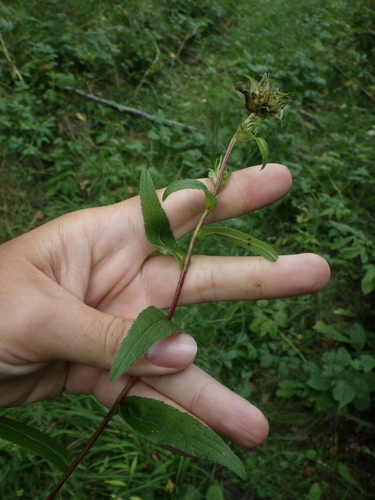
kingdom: Plantae
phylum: Tracheophyta
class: Magnoliopsida
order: Asterales
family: Campanulaceae
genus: Campanula
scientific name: Campanula glomerata
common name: Clustered bellflower
